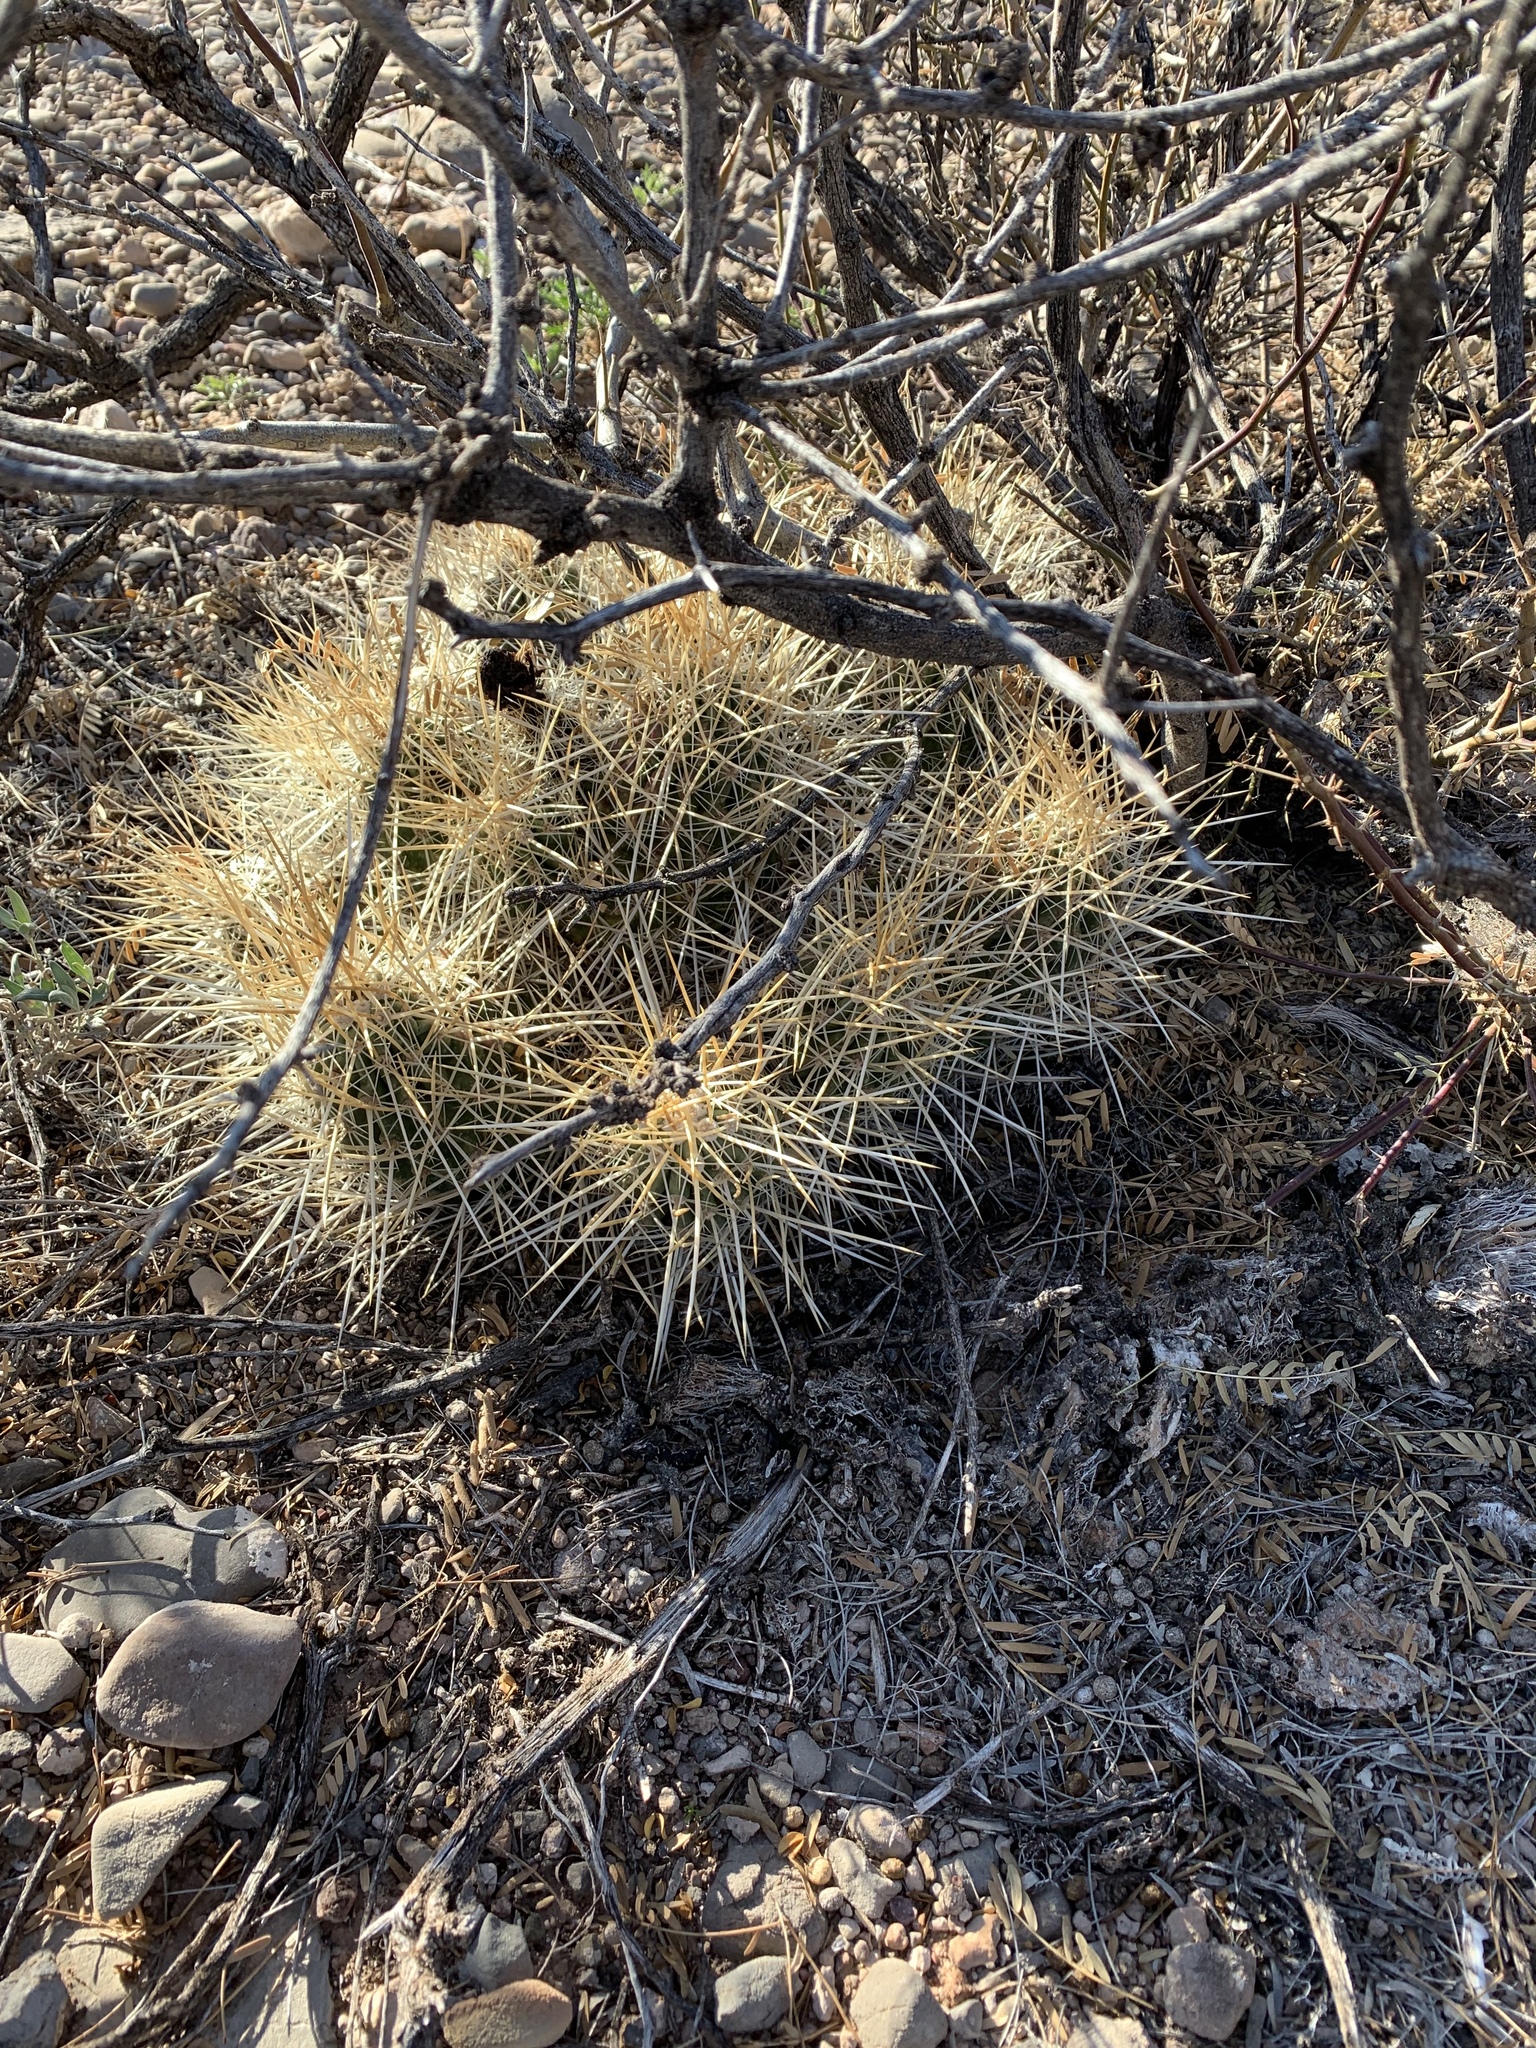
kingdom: Plantae
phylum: Tracheophyta
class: Magnoliopsida
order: Caryophyllales
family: Cactaceae
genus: Echinocereus
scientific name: Echinocereus stramineus
